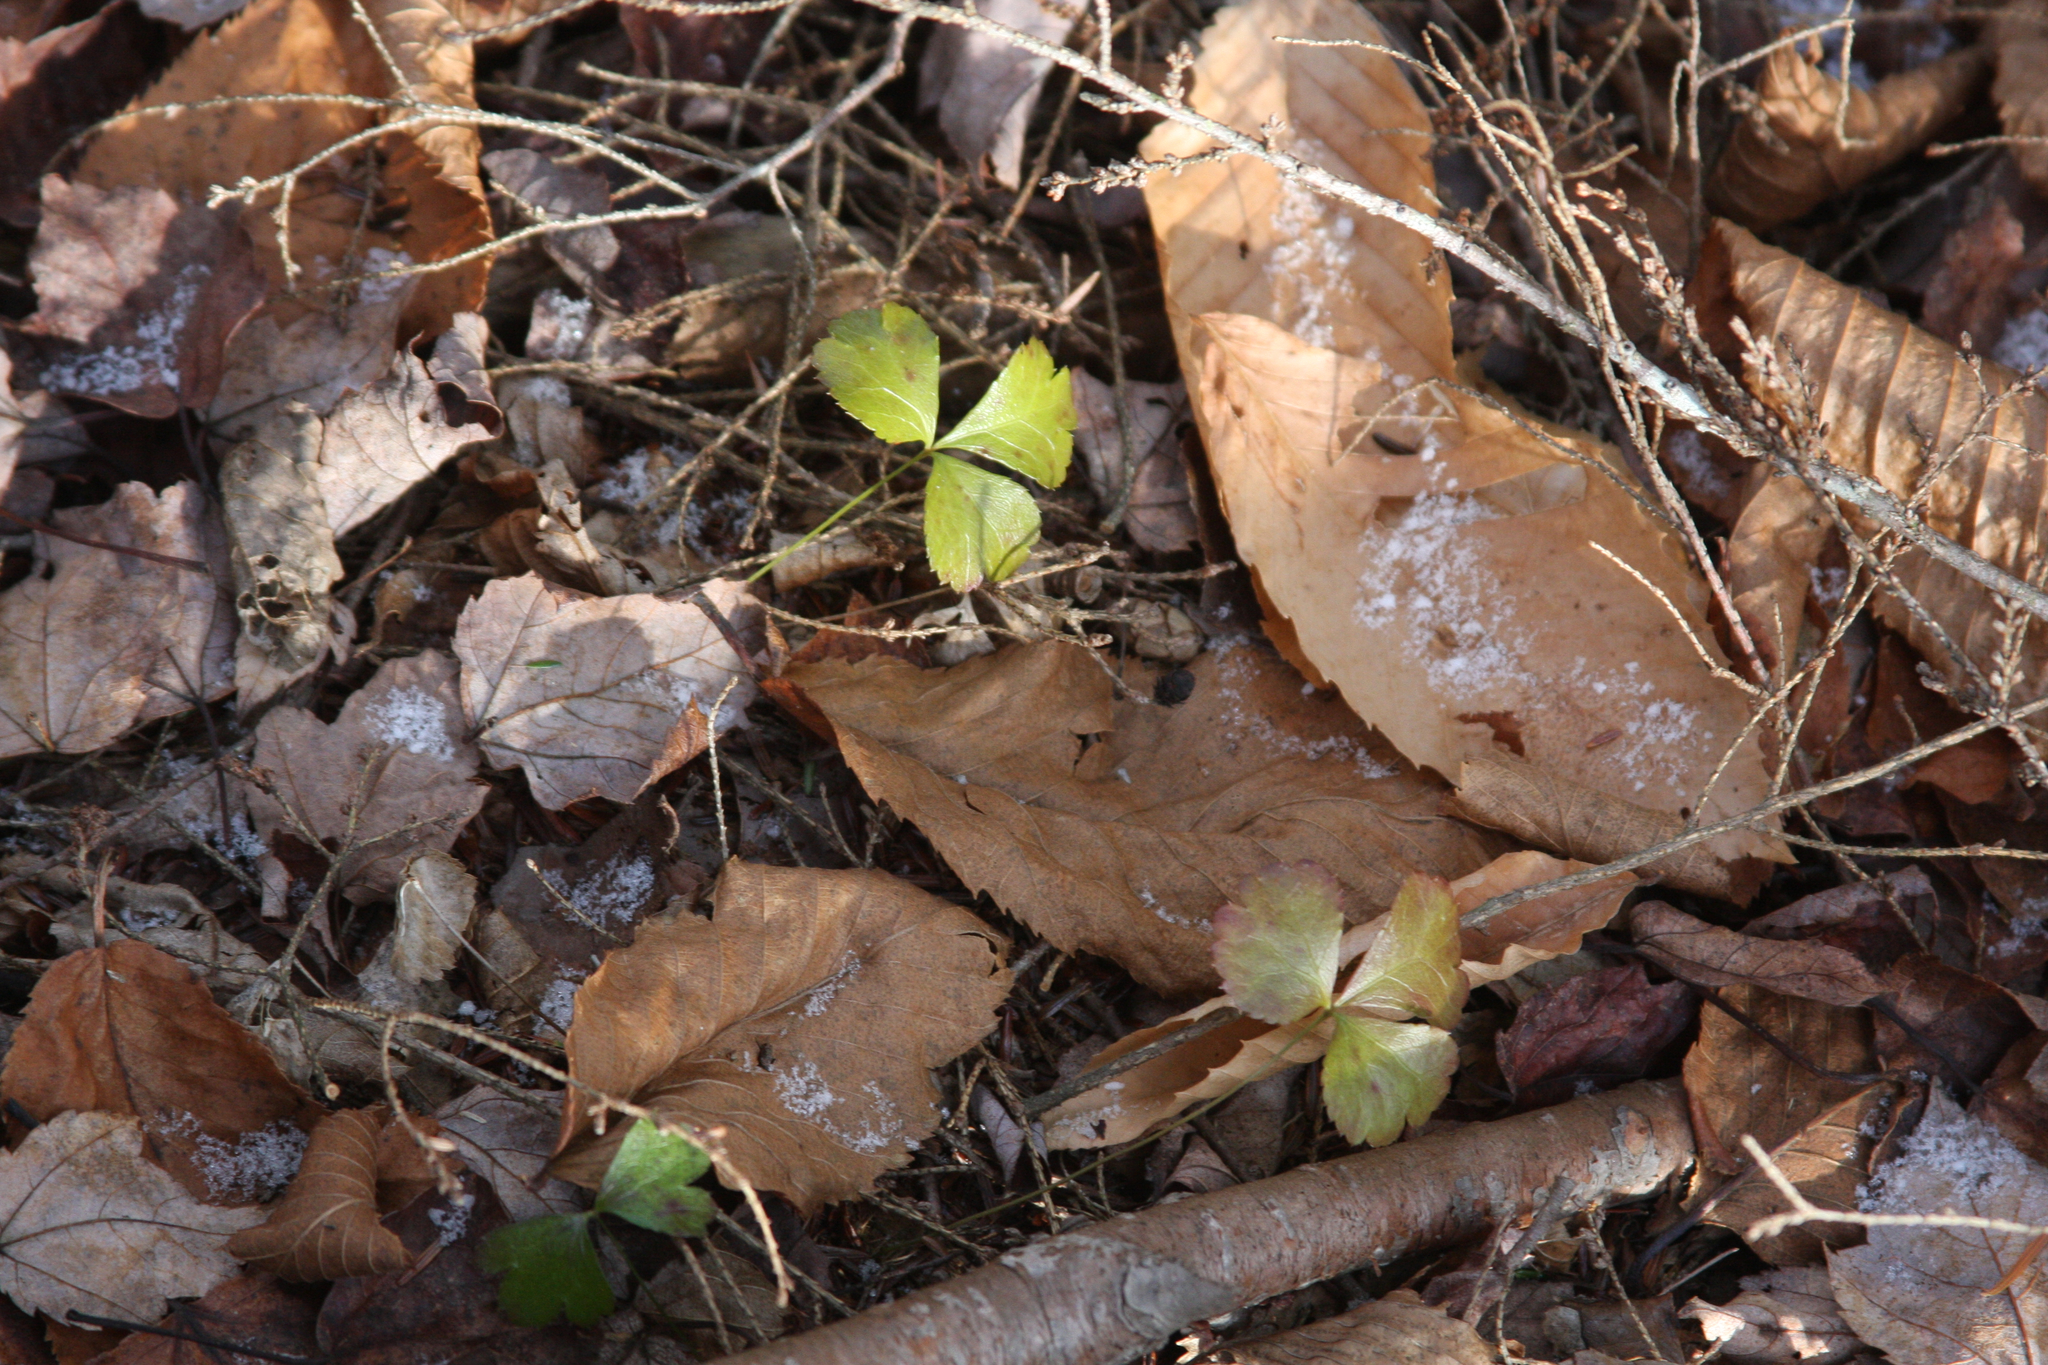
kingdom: Plantae
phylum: Tracheophyta
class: Magnoliopsida
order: Ranunculales
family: Ranunculaceae
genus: Coptis
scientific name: Coptis trifolia
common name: Canker-root
